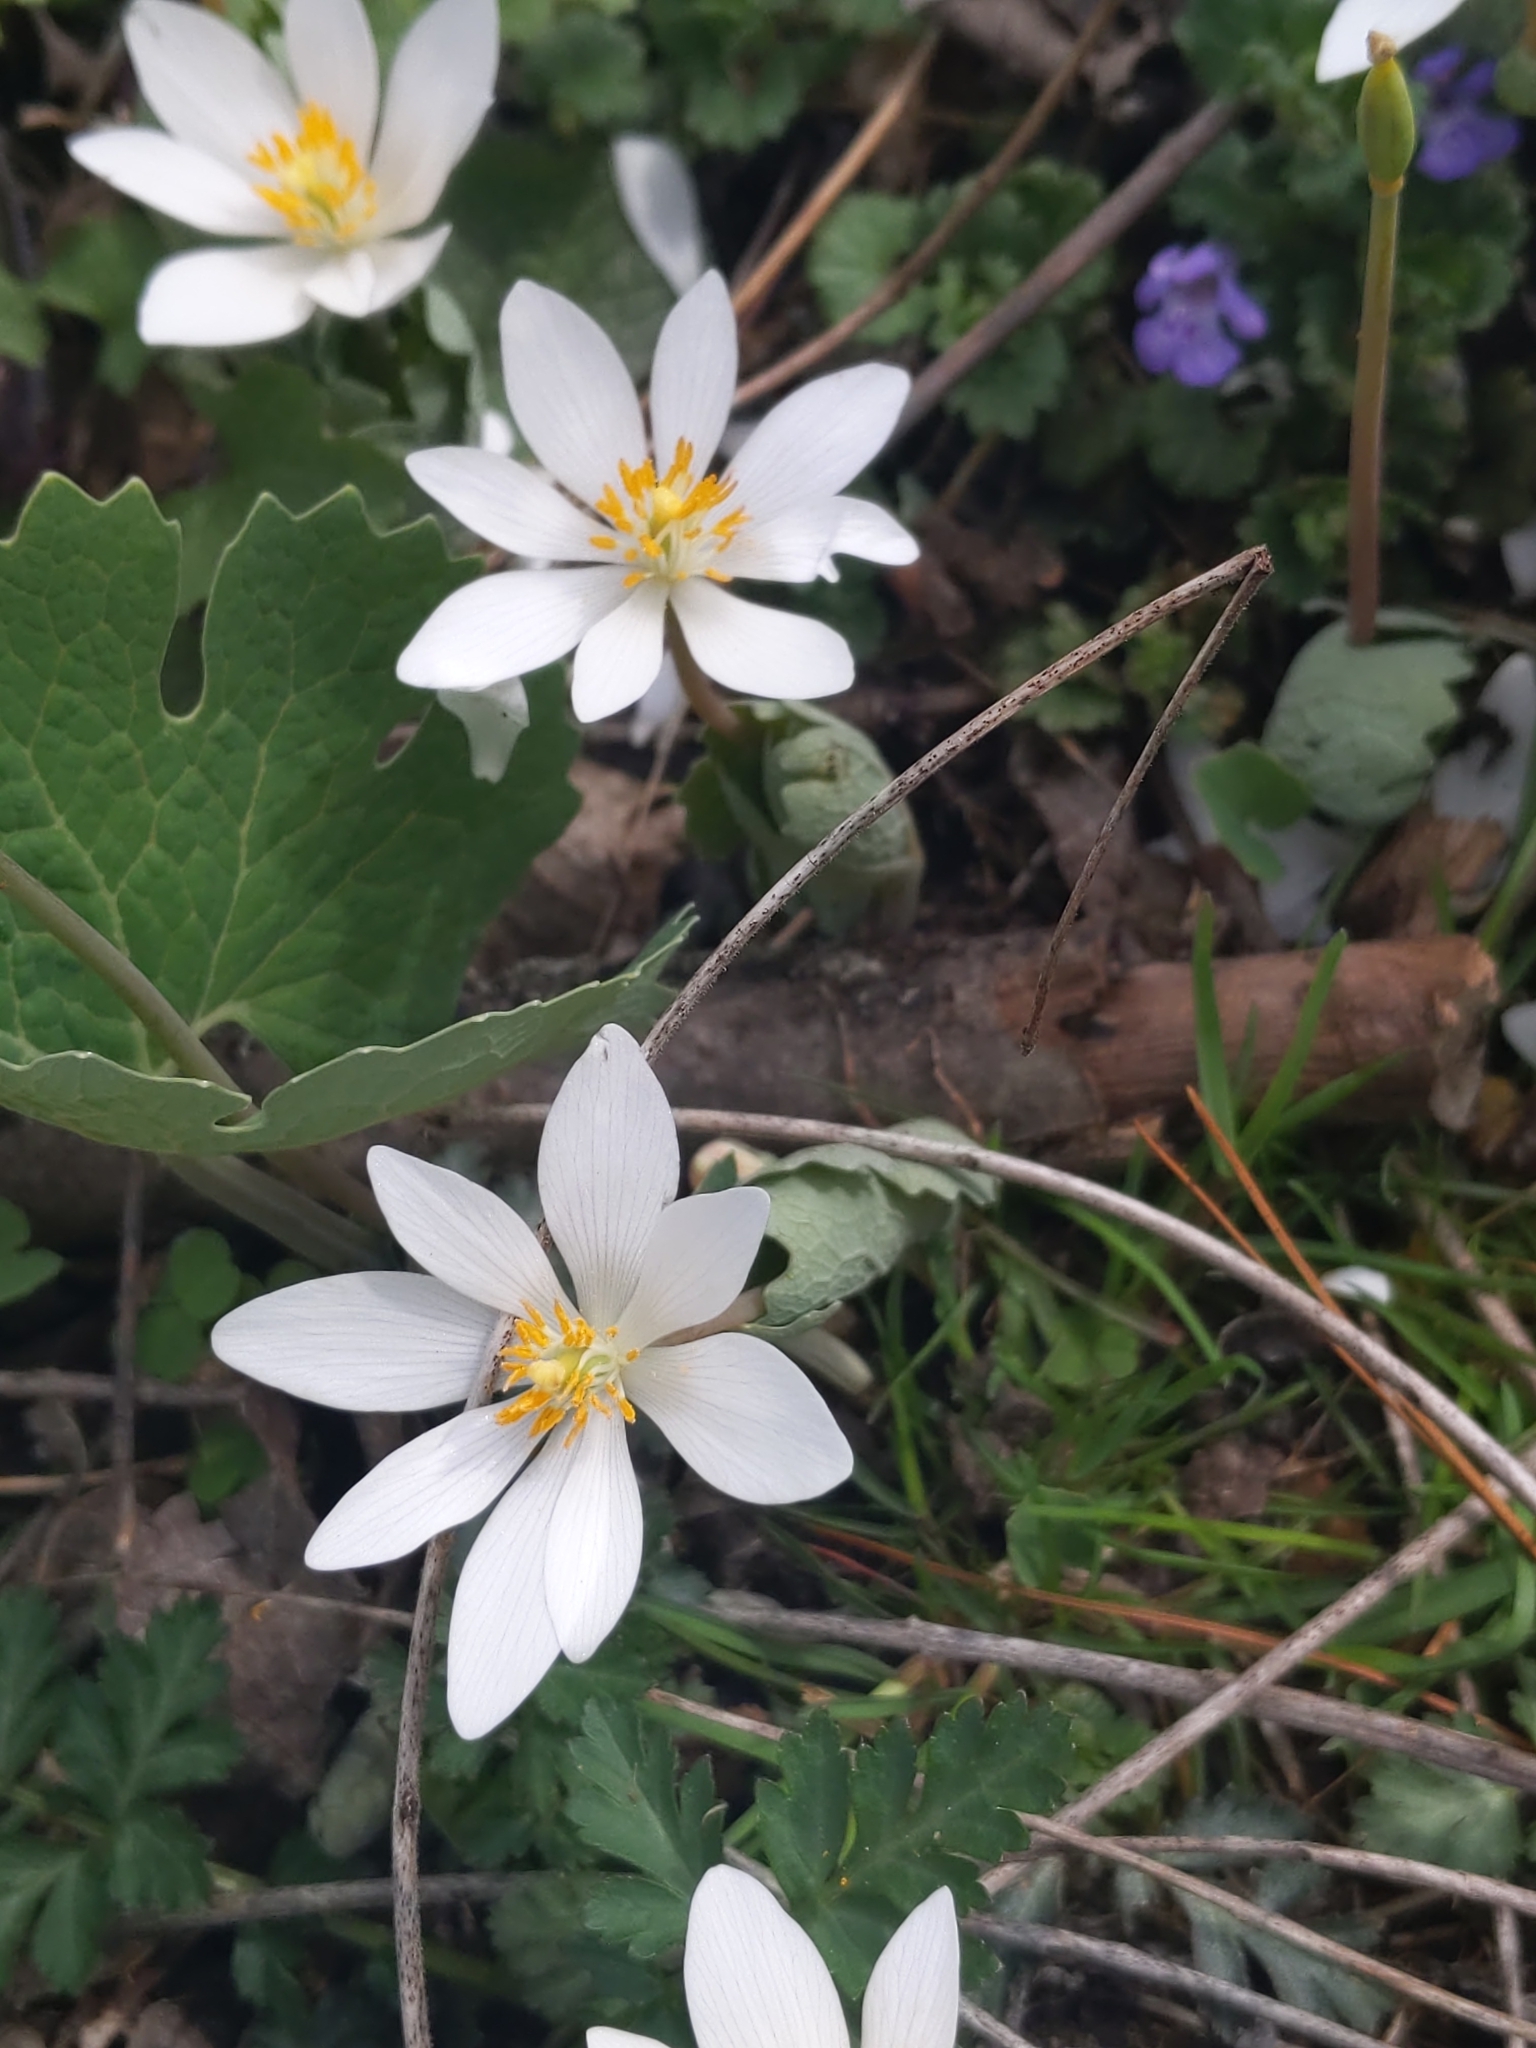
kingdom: Plantae
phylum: Tracheophyta
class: Magnoliopsida
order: Ranunculales
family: Papaveraceae
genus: Sanguinaria
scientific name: Sanguinaria canadensis
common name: Bloodroot
